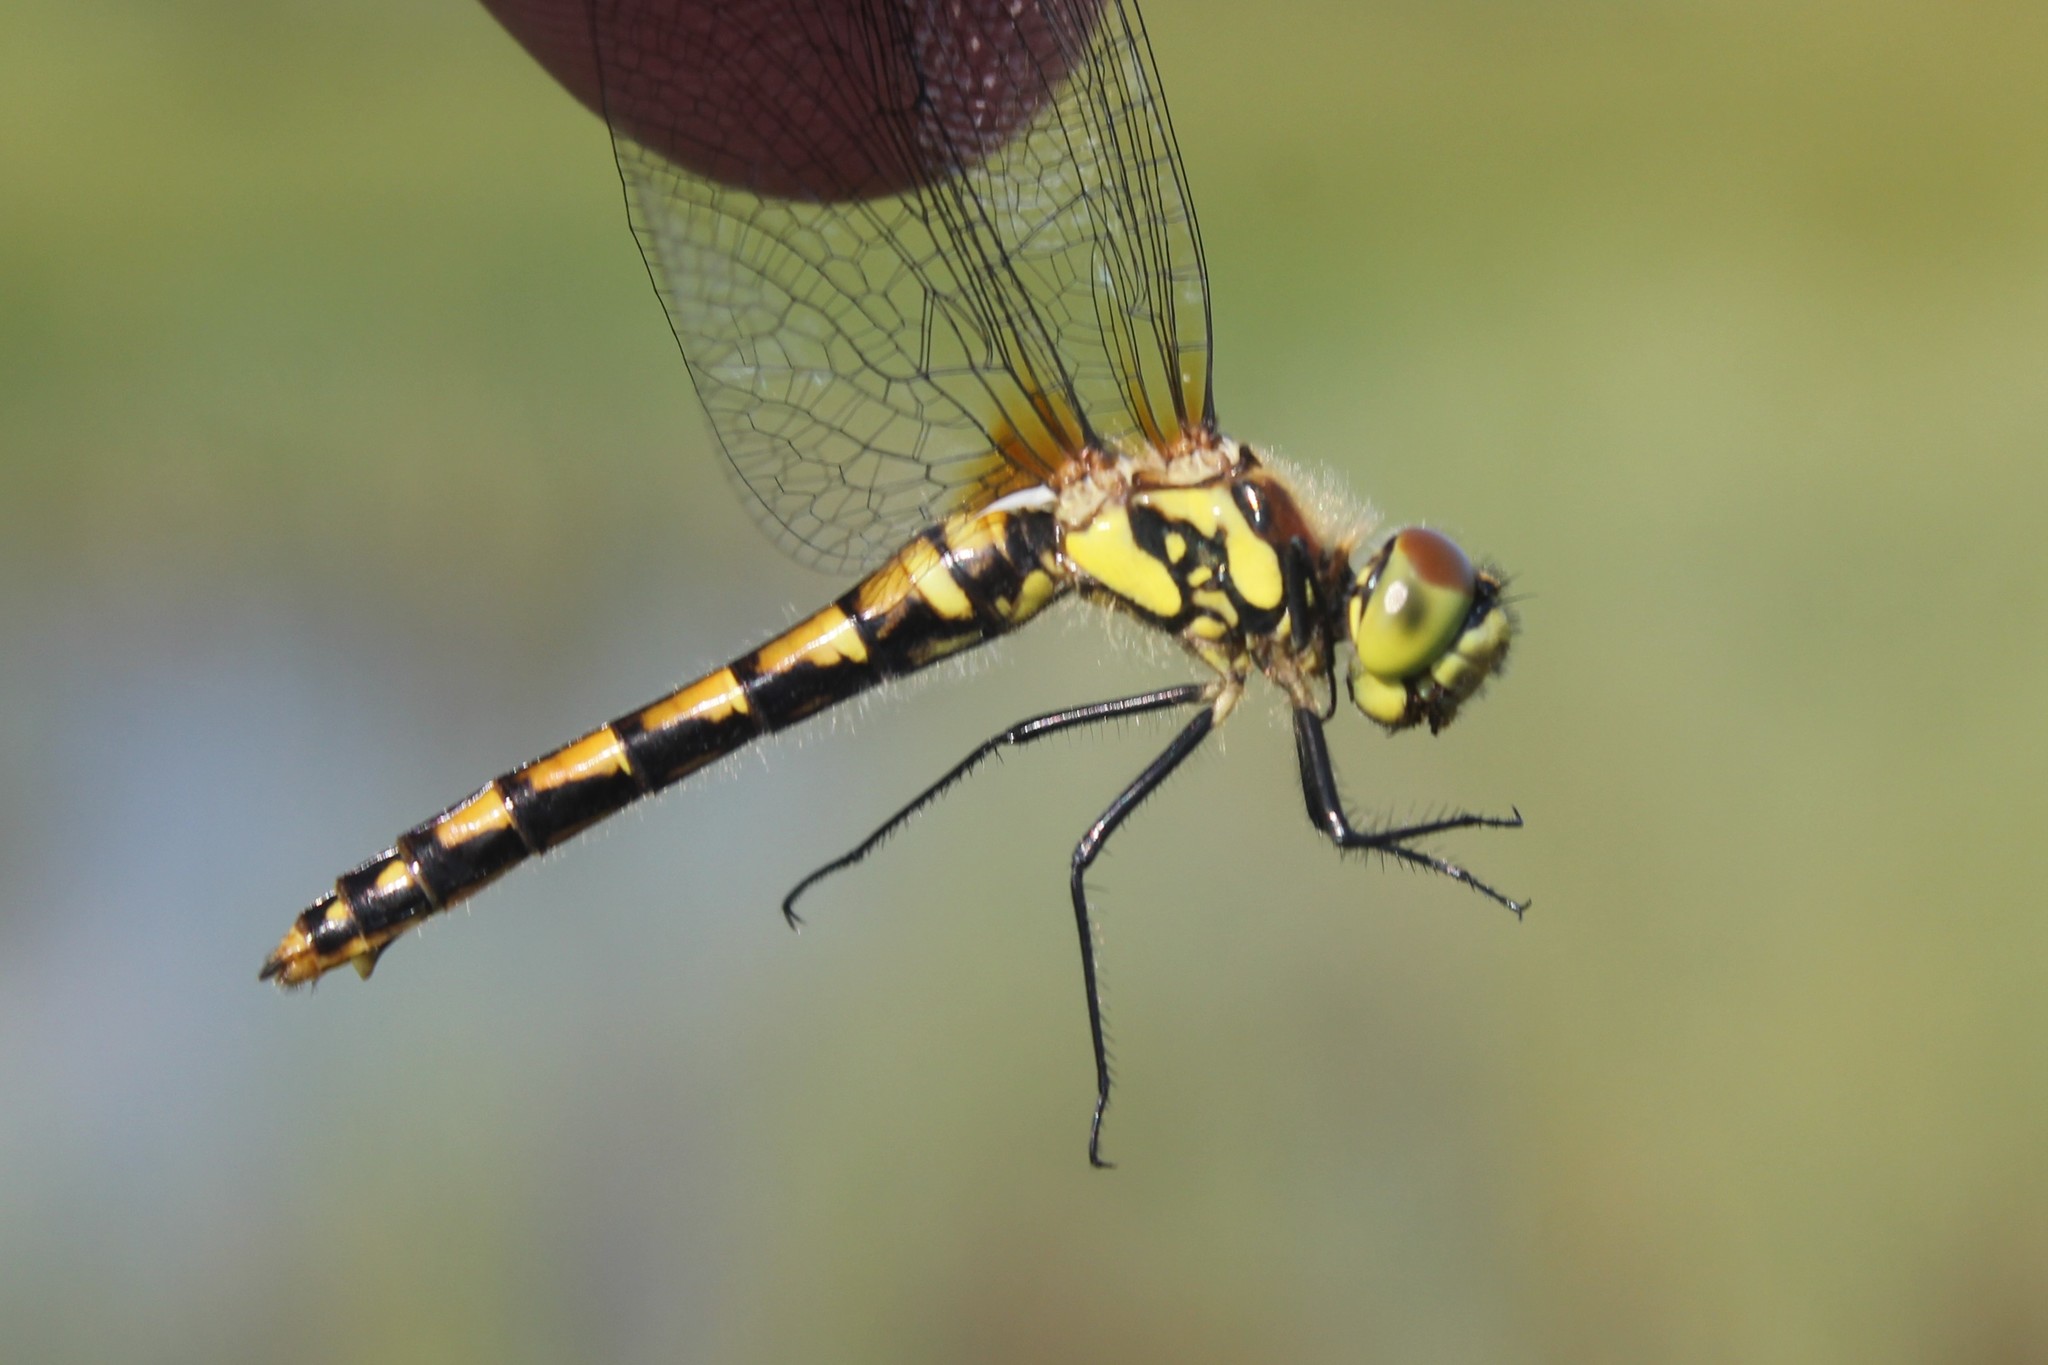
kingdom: Animalia
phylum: Arthropoda
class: Insecta
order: Odonata
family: Libellulidae
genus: Sympetrum
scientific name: Sympetrum danae
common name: Black darter
